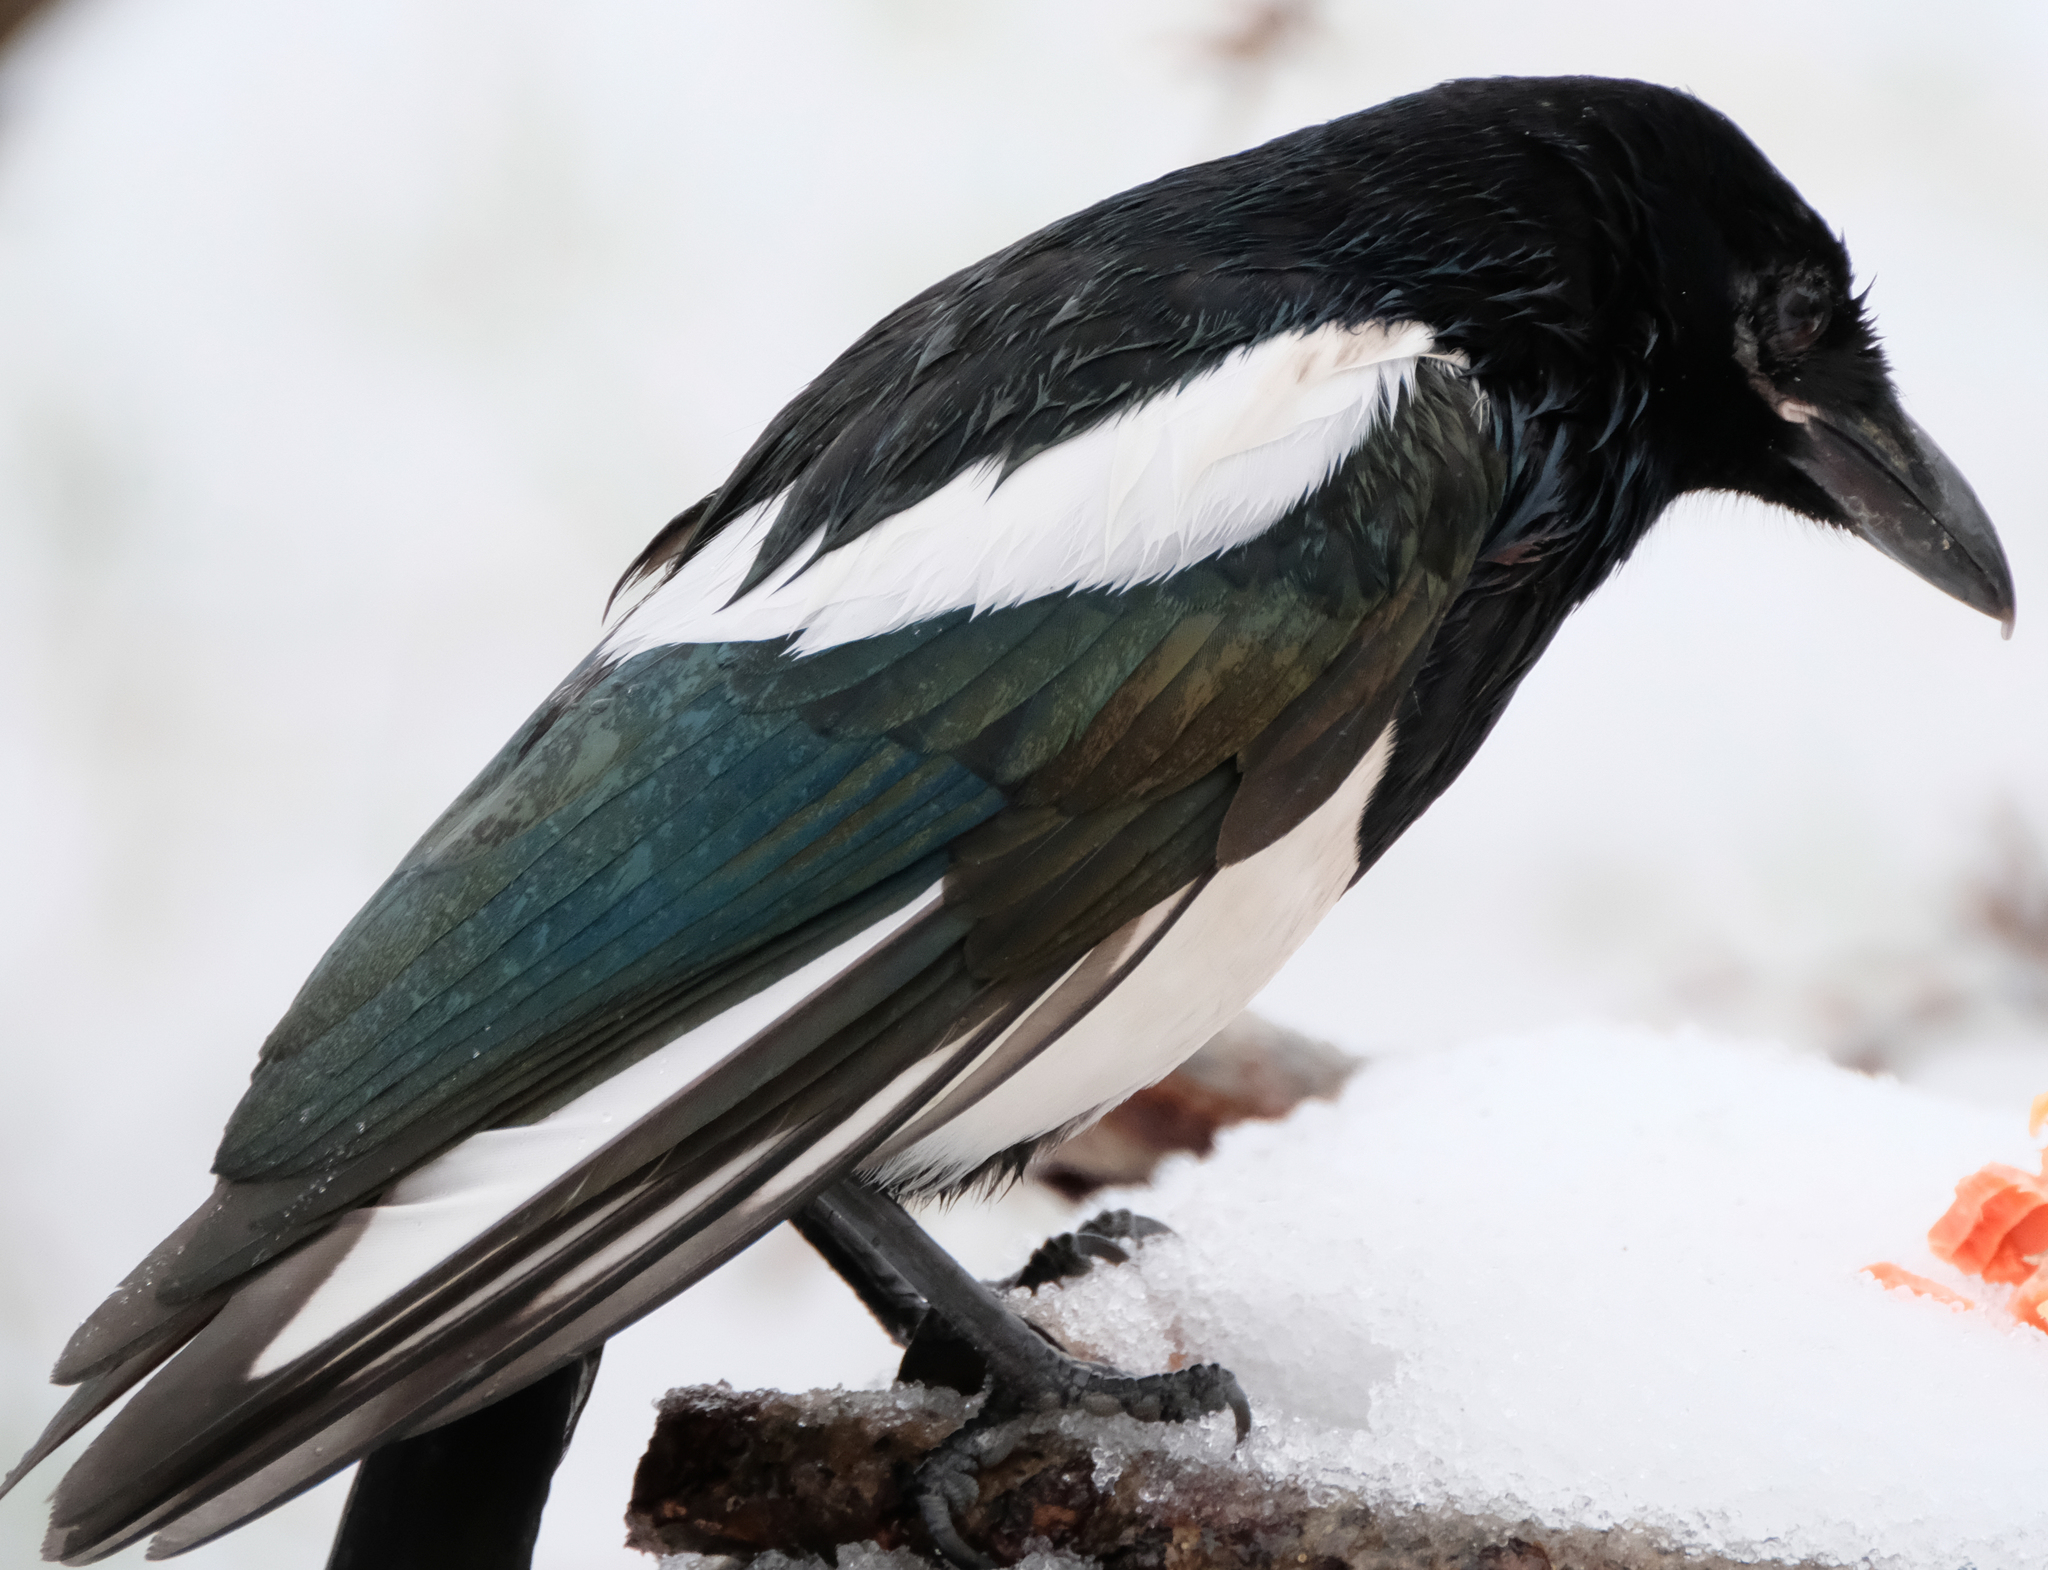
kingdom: Animalia
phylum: Chordata
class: Aves
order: Passeriformes
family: Corvidae
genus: Pica
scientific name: Pica hudsonia
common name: Black-billed magpie
